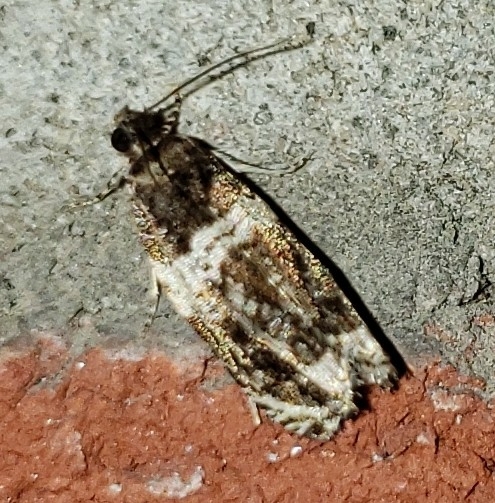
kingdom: Animalia
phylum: Arthropoda
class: Insecta
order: Lepidoptera
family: Tortricidae
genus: Olethreutes
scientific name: Olethreutes fasciatana
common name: Banded olethreutes moth
